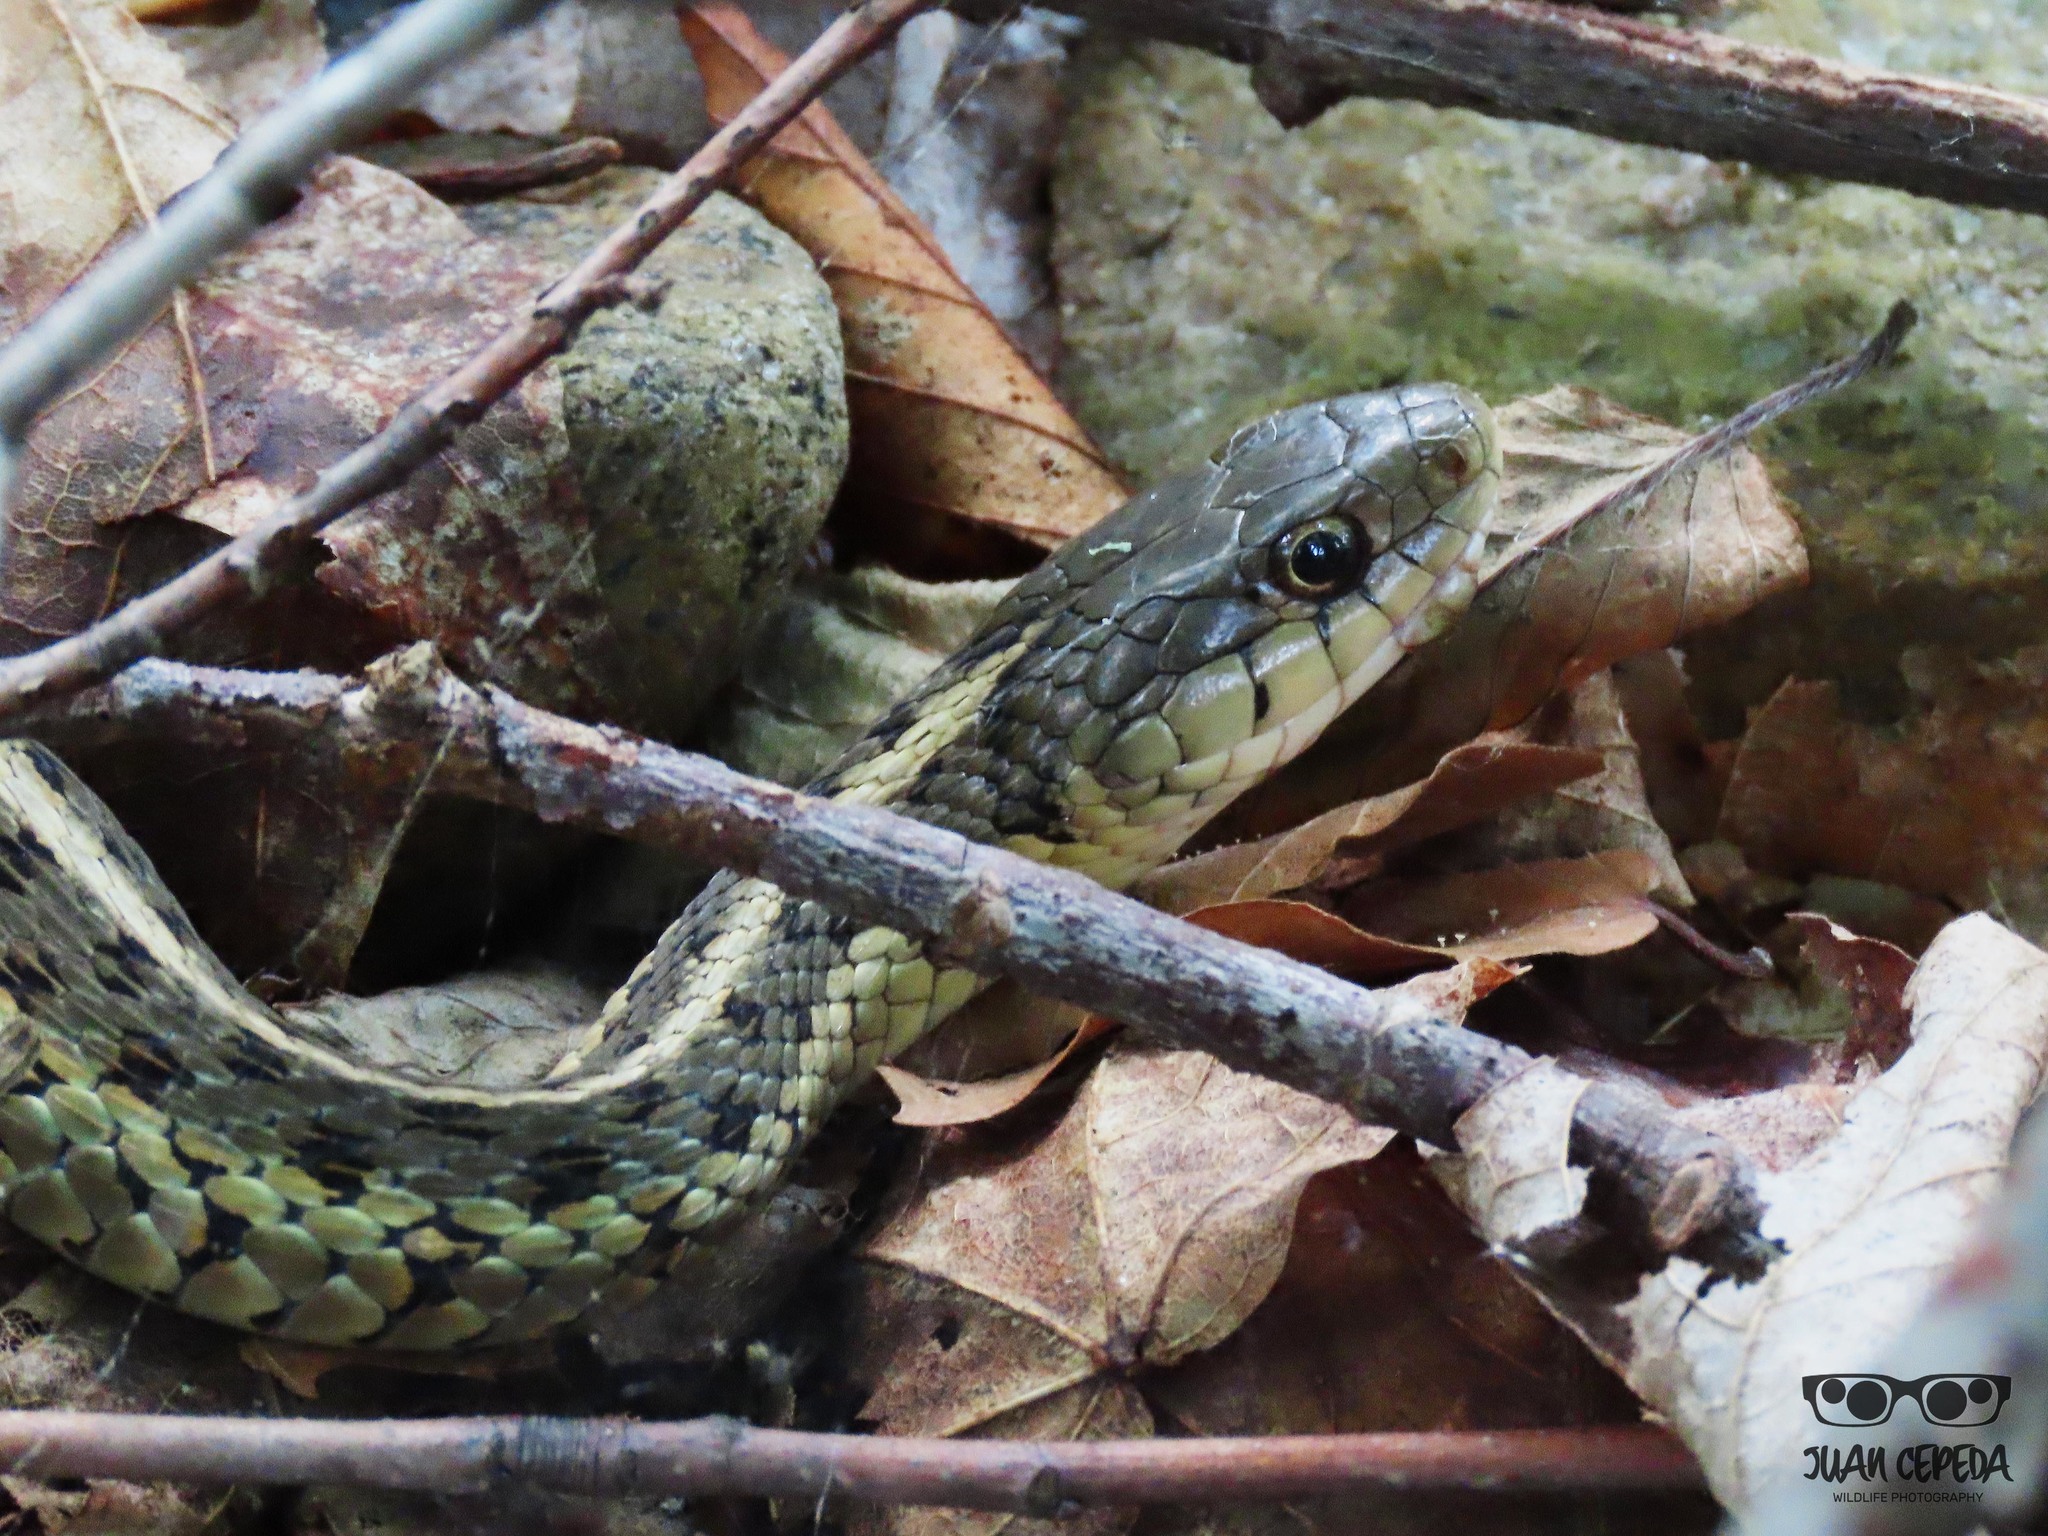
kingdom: Animalia
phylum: Chordata
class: Squamata
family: Colubridae
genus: Thamnophis
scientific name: Thamnophis sirtalis
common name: Common garter snake
